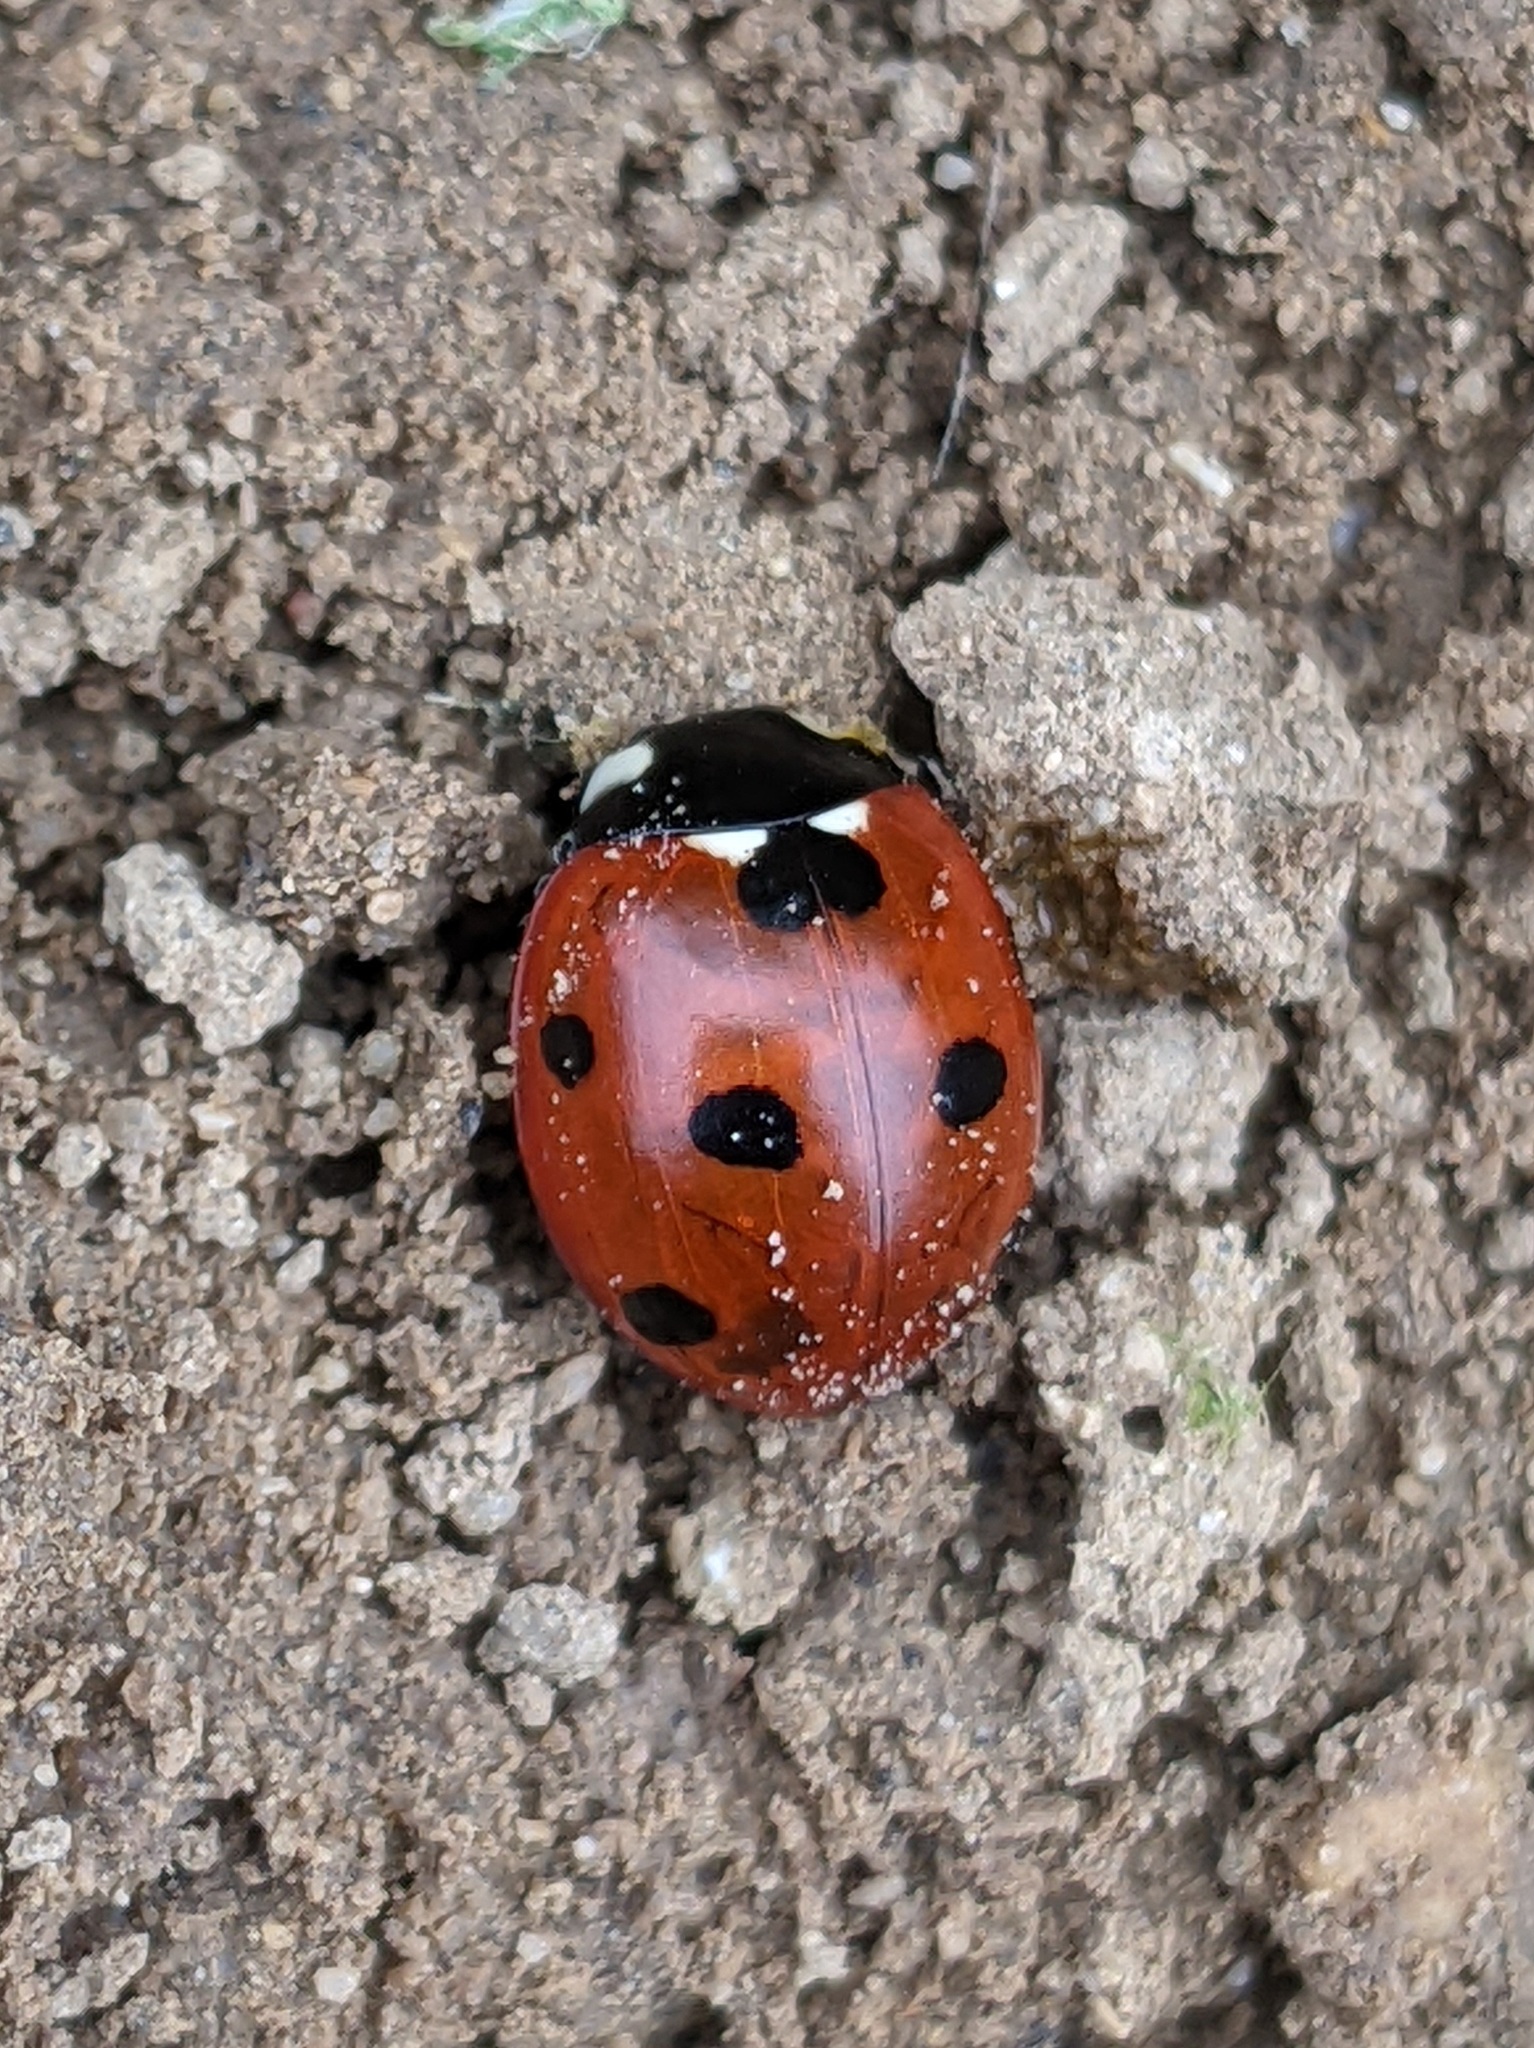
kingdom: Animalia
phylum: Arthropoda
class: Insecta
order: Coleoptera
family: Coccinellidae
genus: Coccinella
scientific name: Coccinella septempunctata
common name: Sevenspotted lady beetle
